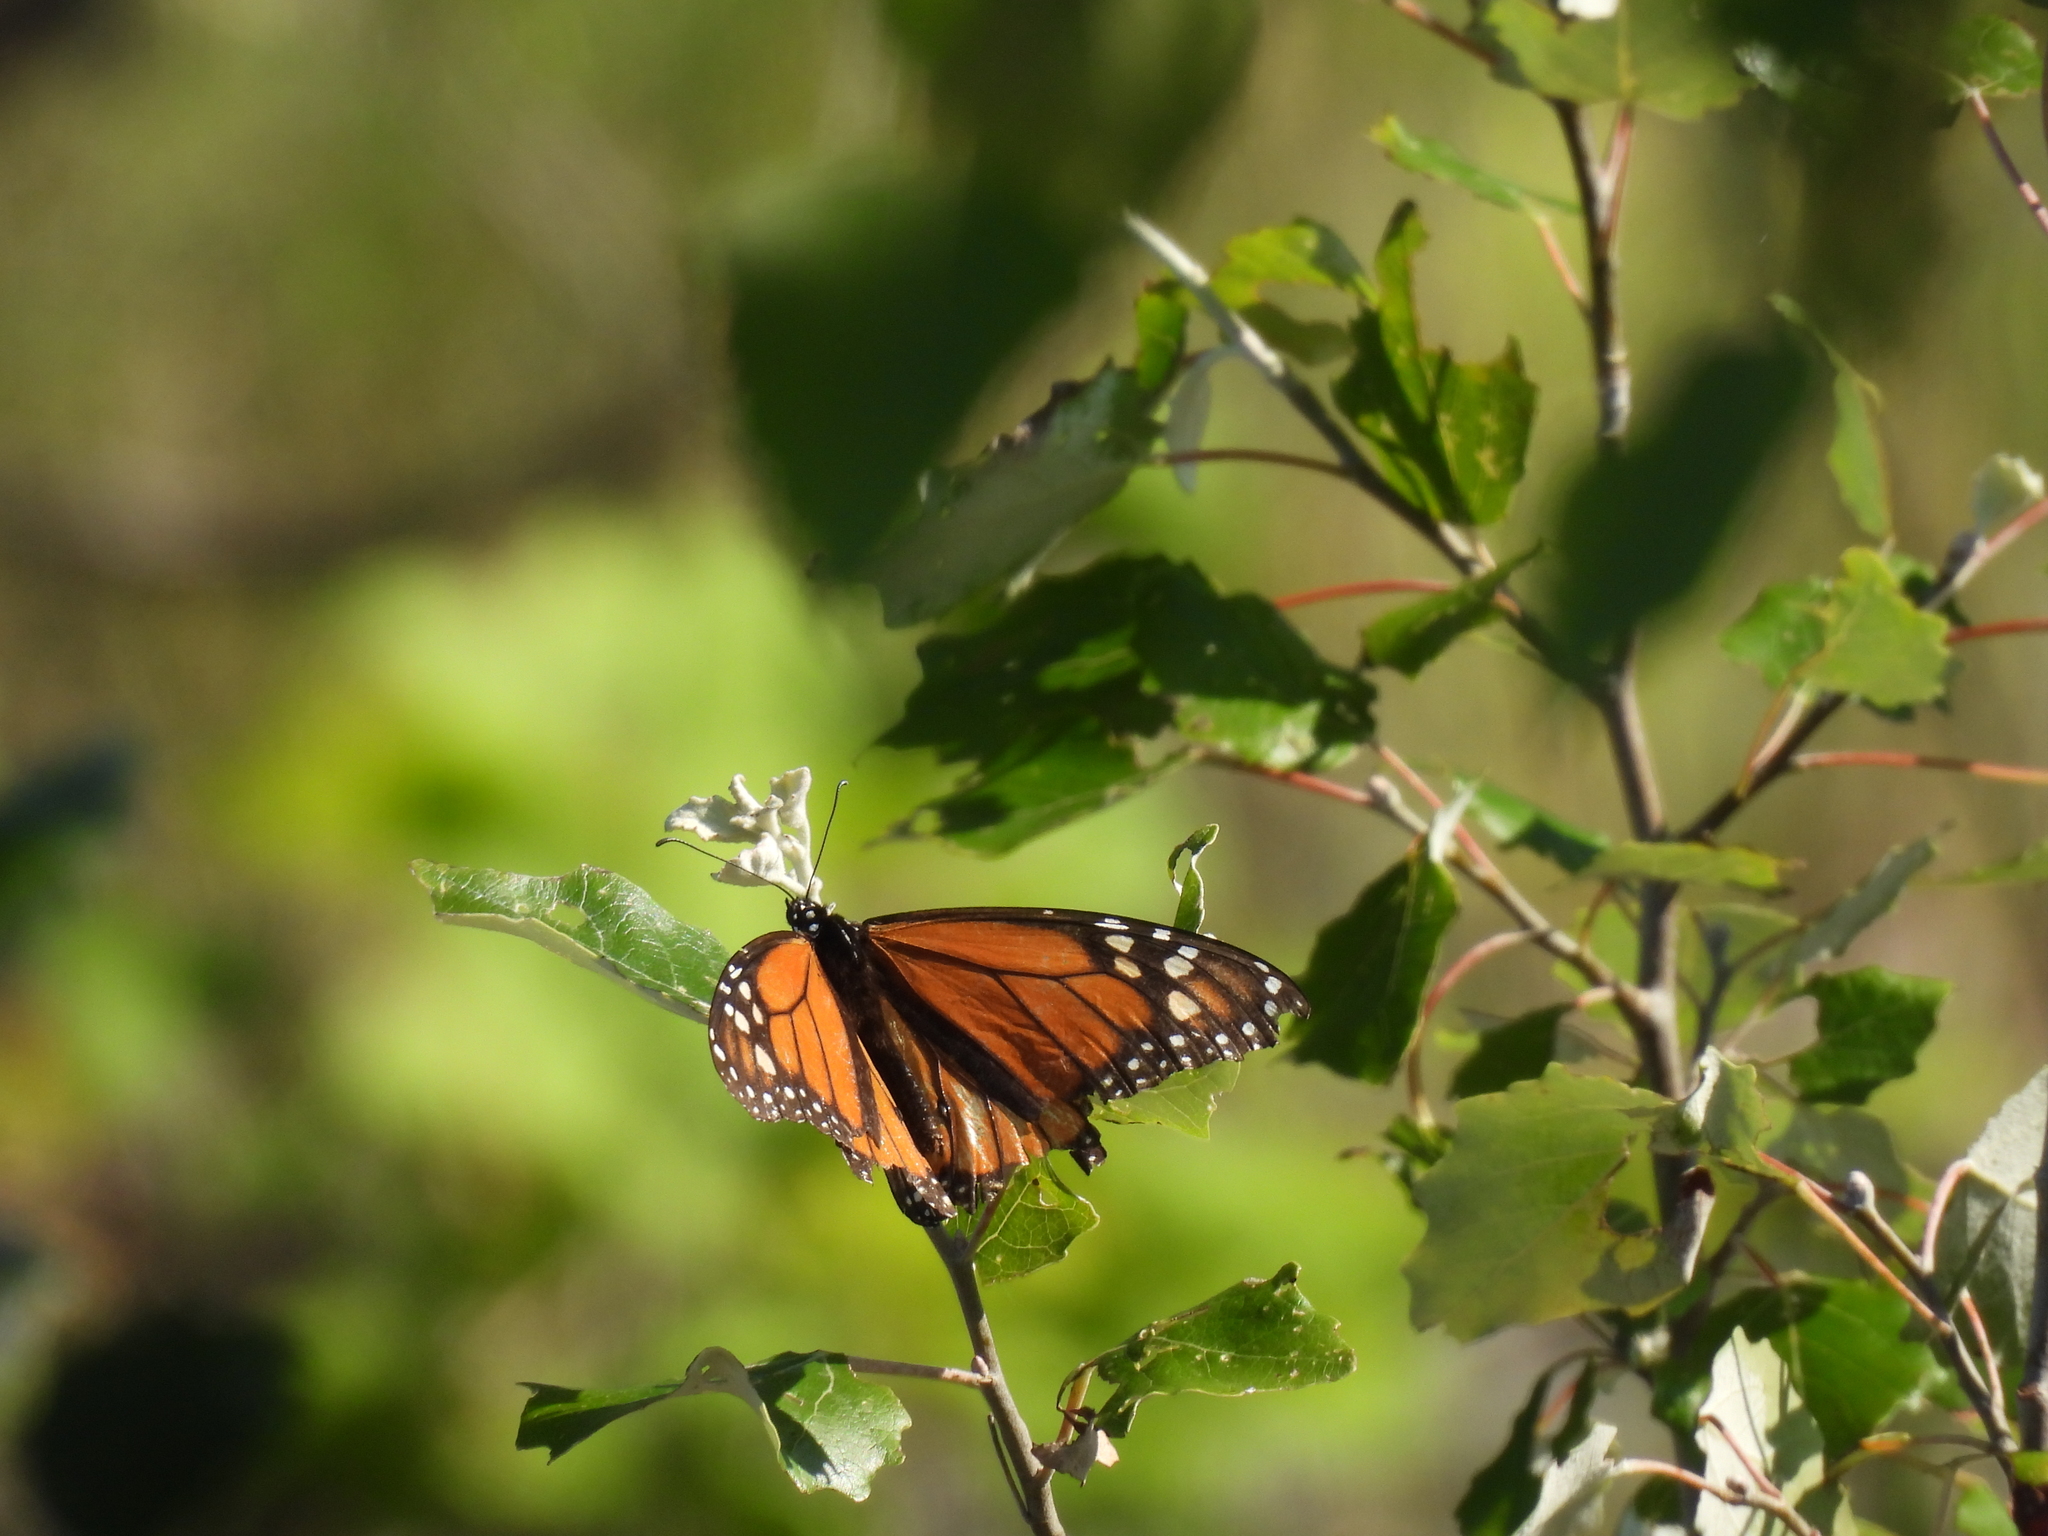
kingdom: Animalia
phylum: Arthropoda
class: Insecta
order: Lepidoptera
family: Nymphalidae
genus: Danaus
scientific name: Danaus plexippus
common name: Monarch
